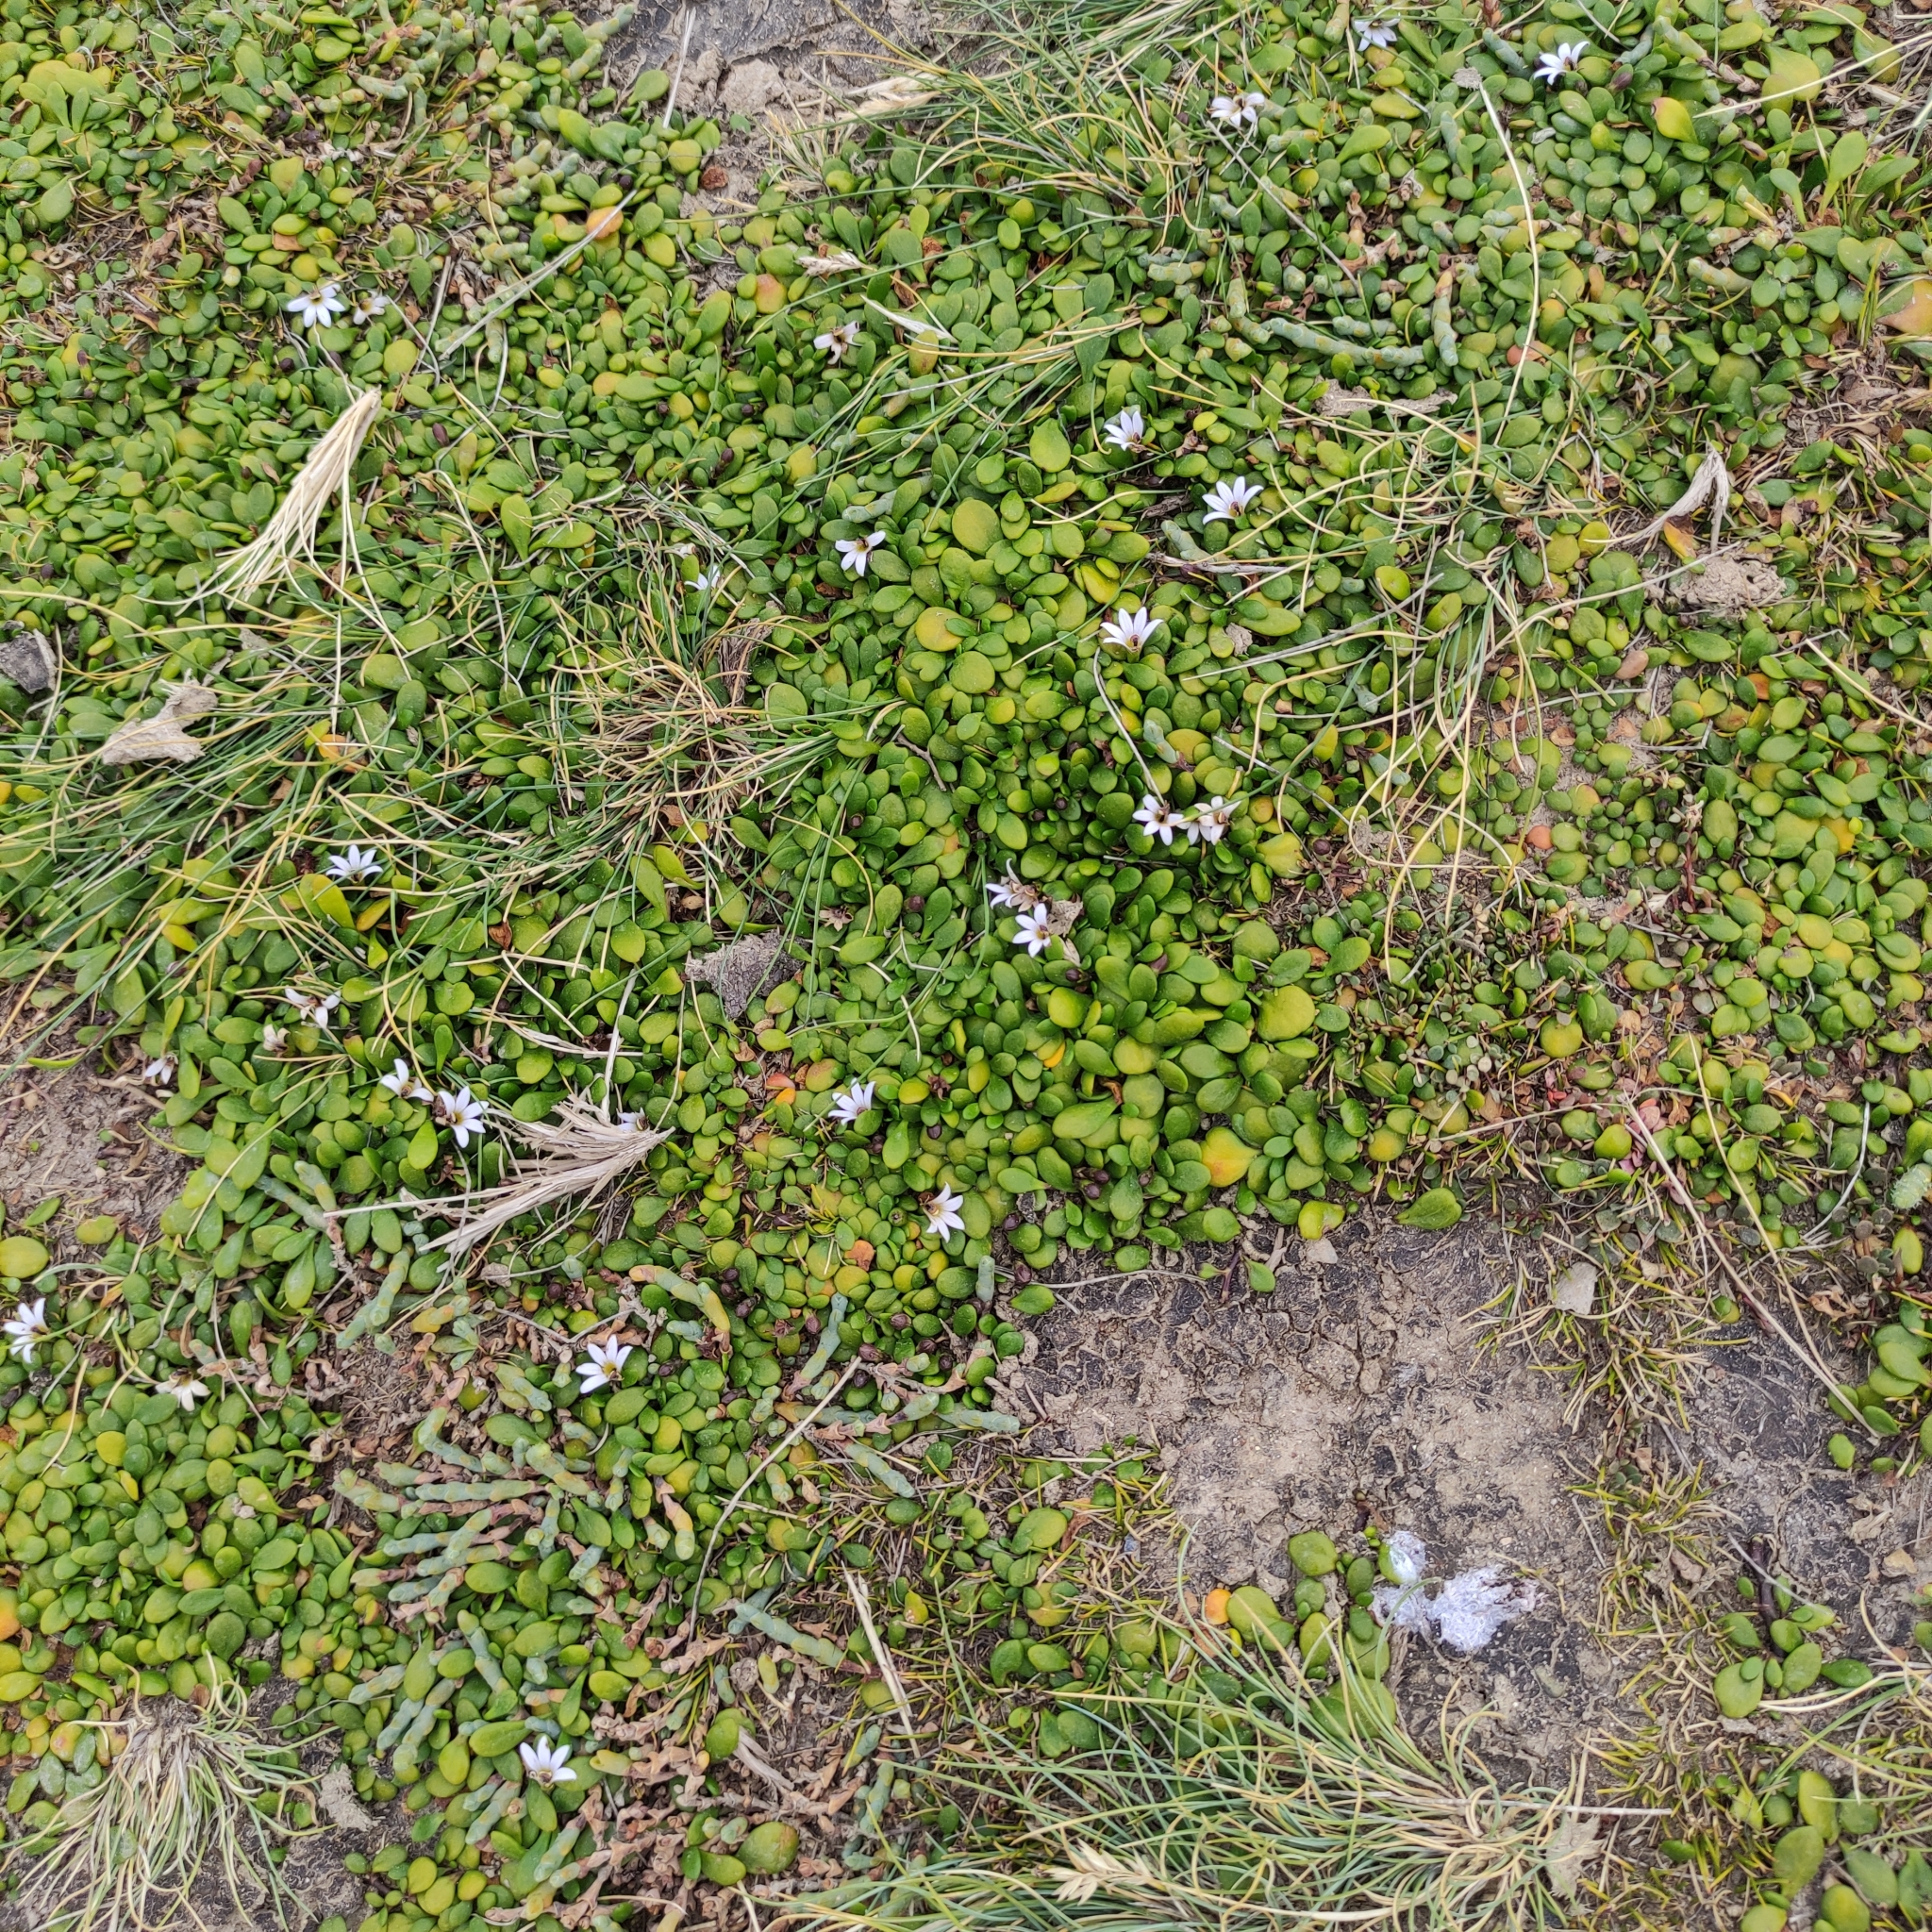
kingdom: Plantae
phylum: Tracheophyta
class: Magnoliopsida
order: Asterales
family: Goodeniaceae
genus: Goodenia
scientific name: Goodenia radicans
